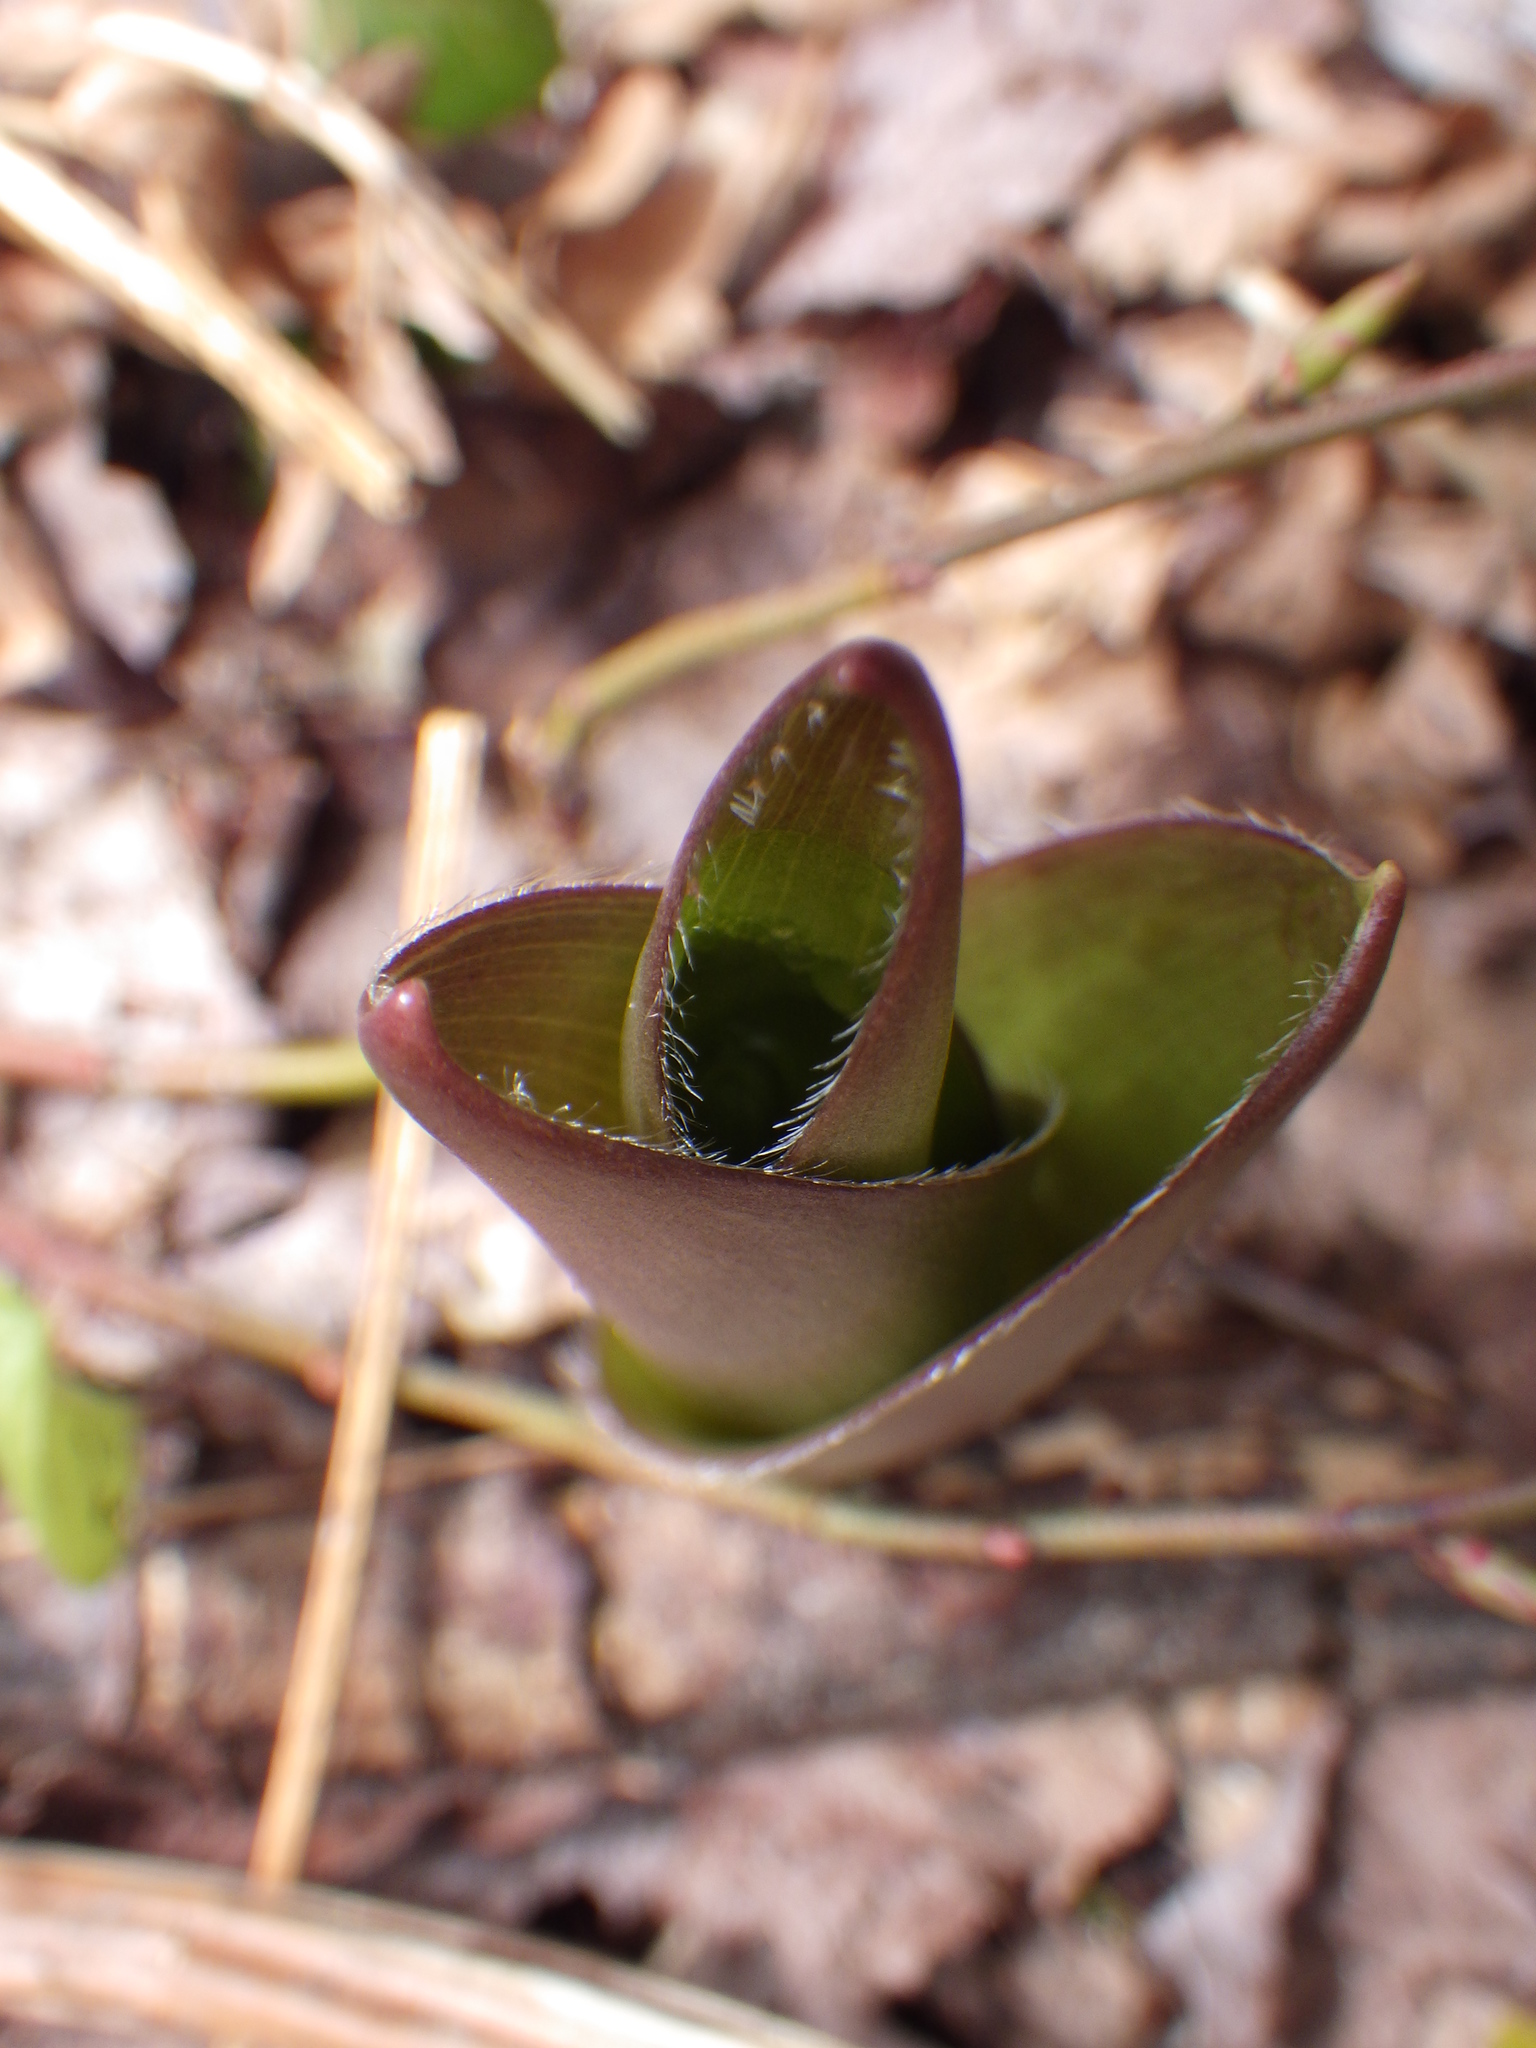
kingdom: Plantae
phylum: Tracheophyta
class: Liliopsida
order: Liliales
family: Liliaceae
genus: Clintonia
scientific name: Clintonia borealis
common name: Yellow clintonia
